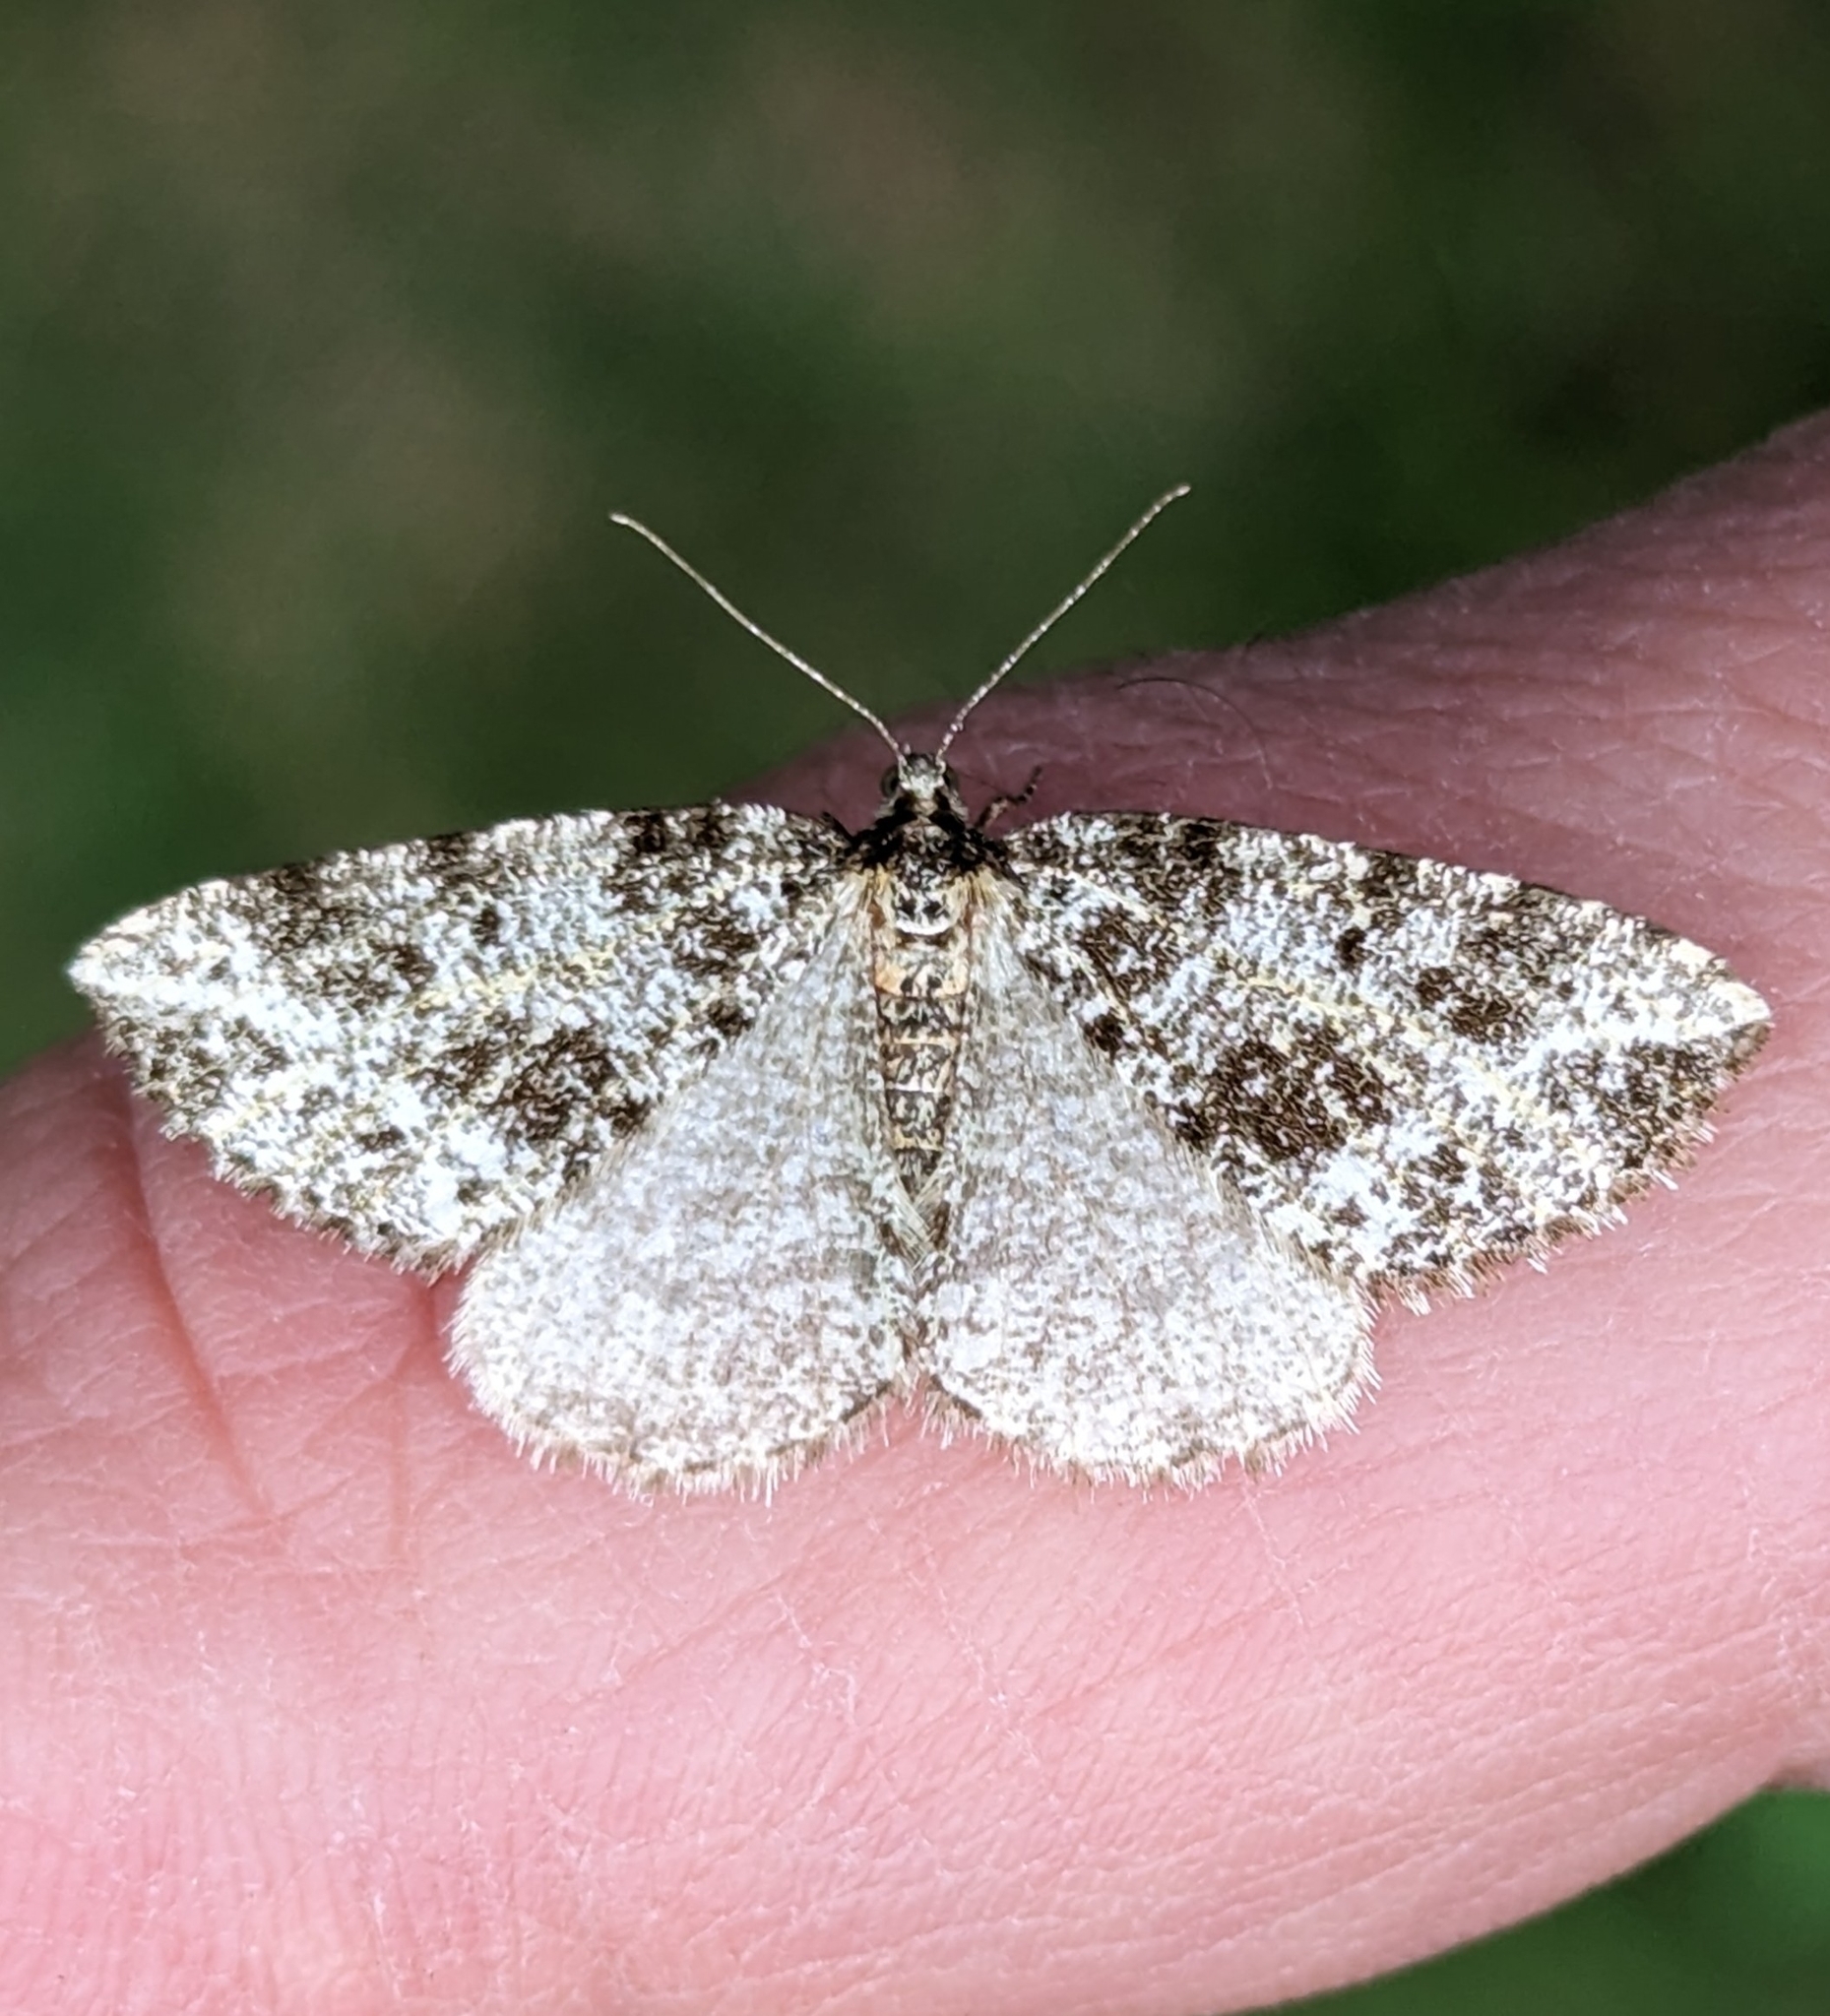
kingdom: Animalia
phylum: Arthropoda
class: Insecta
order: Lepidoptera
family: Geometridae
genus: Orthofidonia
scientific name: Orthofidonia tinctaria
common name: Marbled wave
